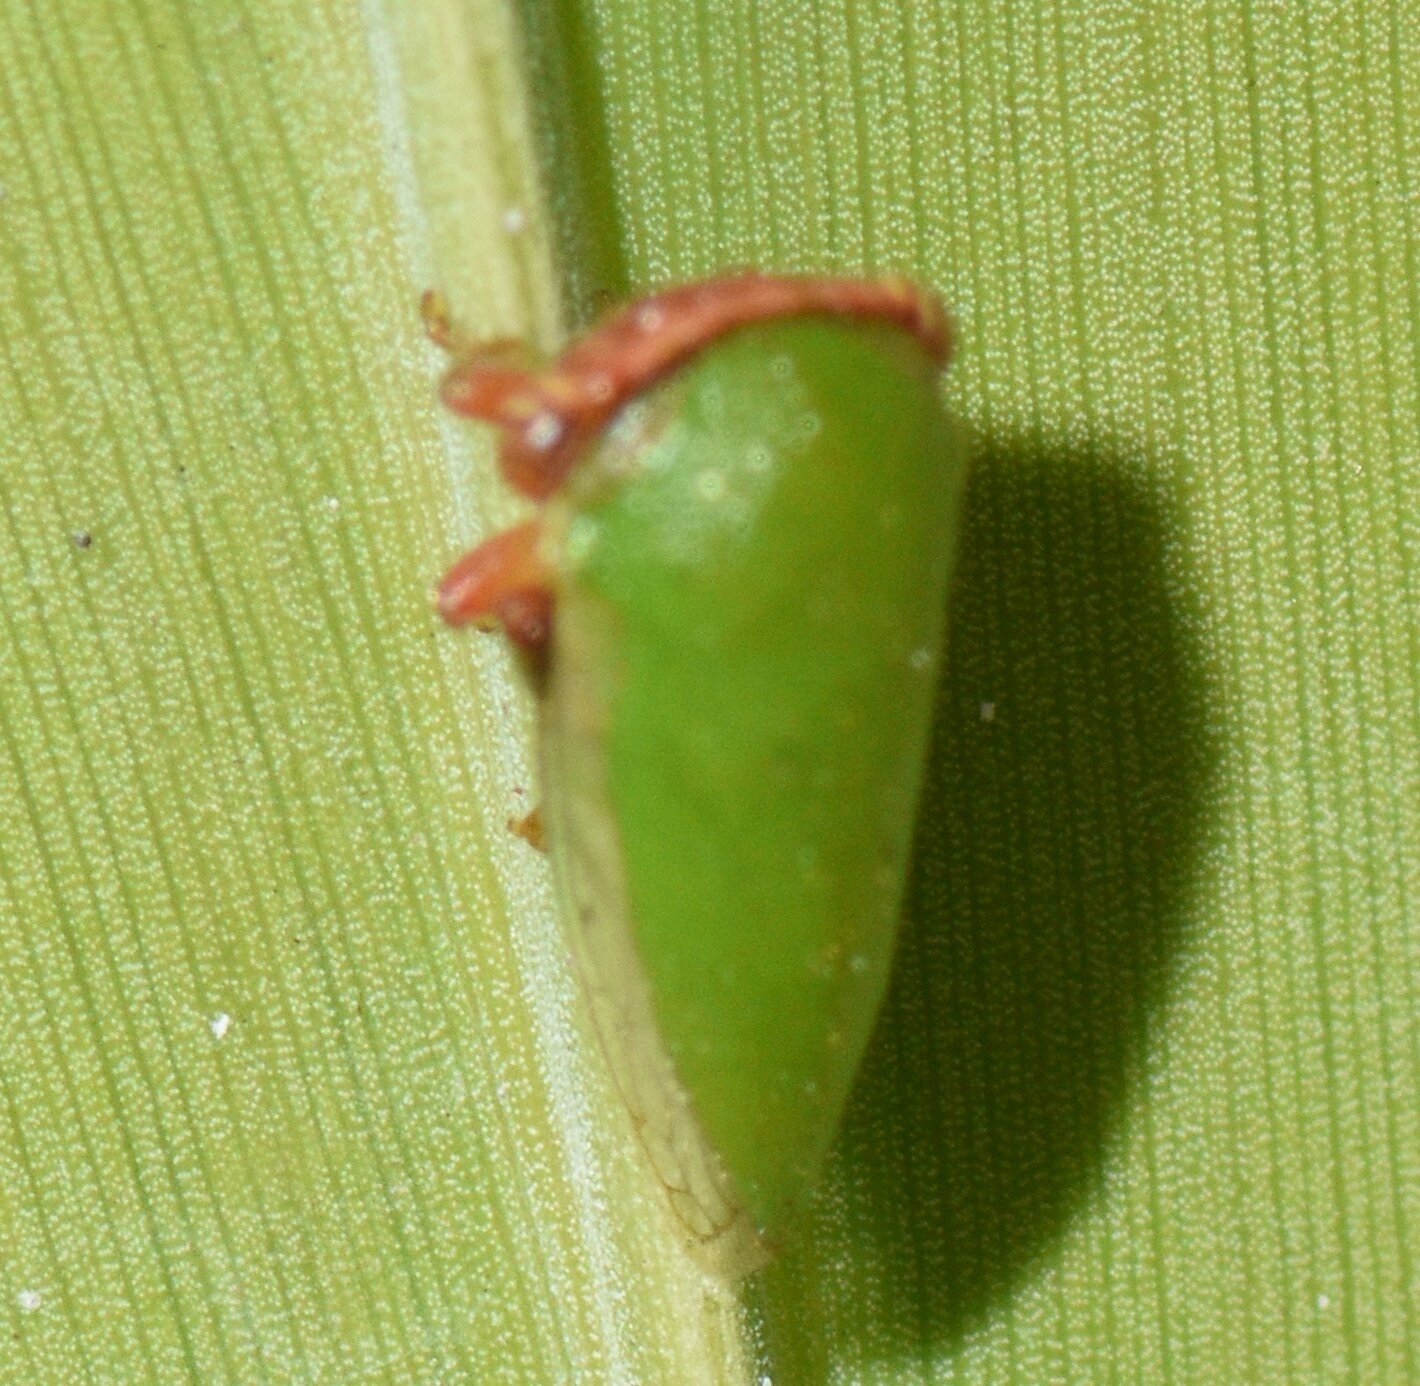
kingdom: Animalia
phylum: Arthropoda
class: Insecta
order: Hemiptera
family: Membracidae
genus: Idioderma
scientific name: Idioderma virescens
